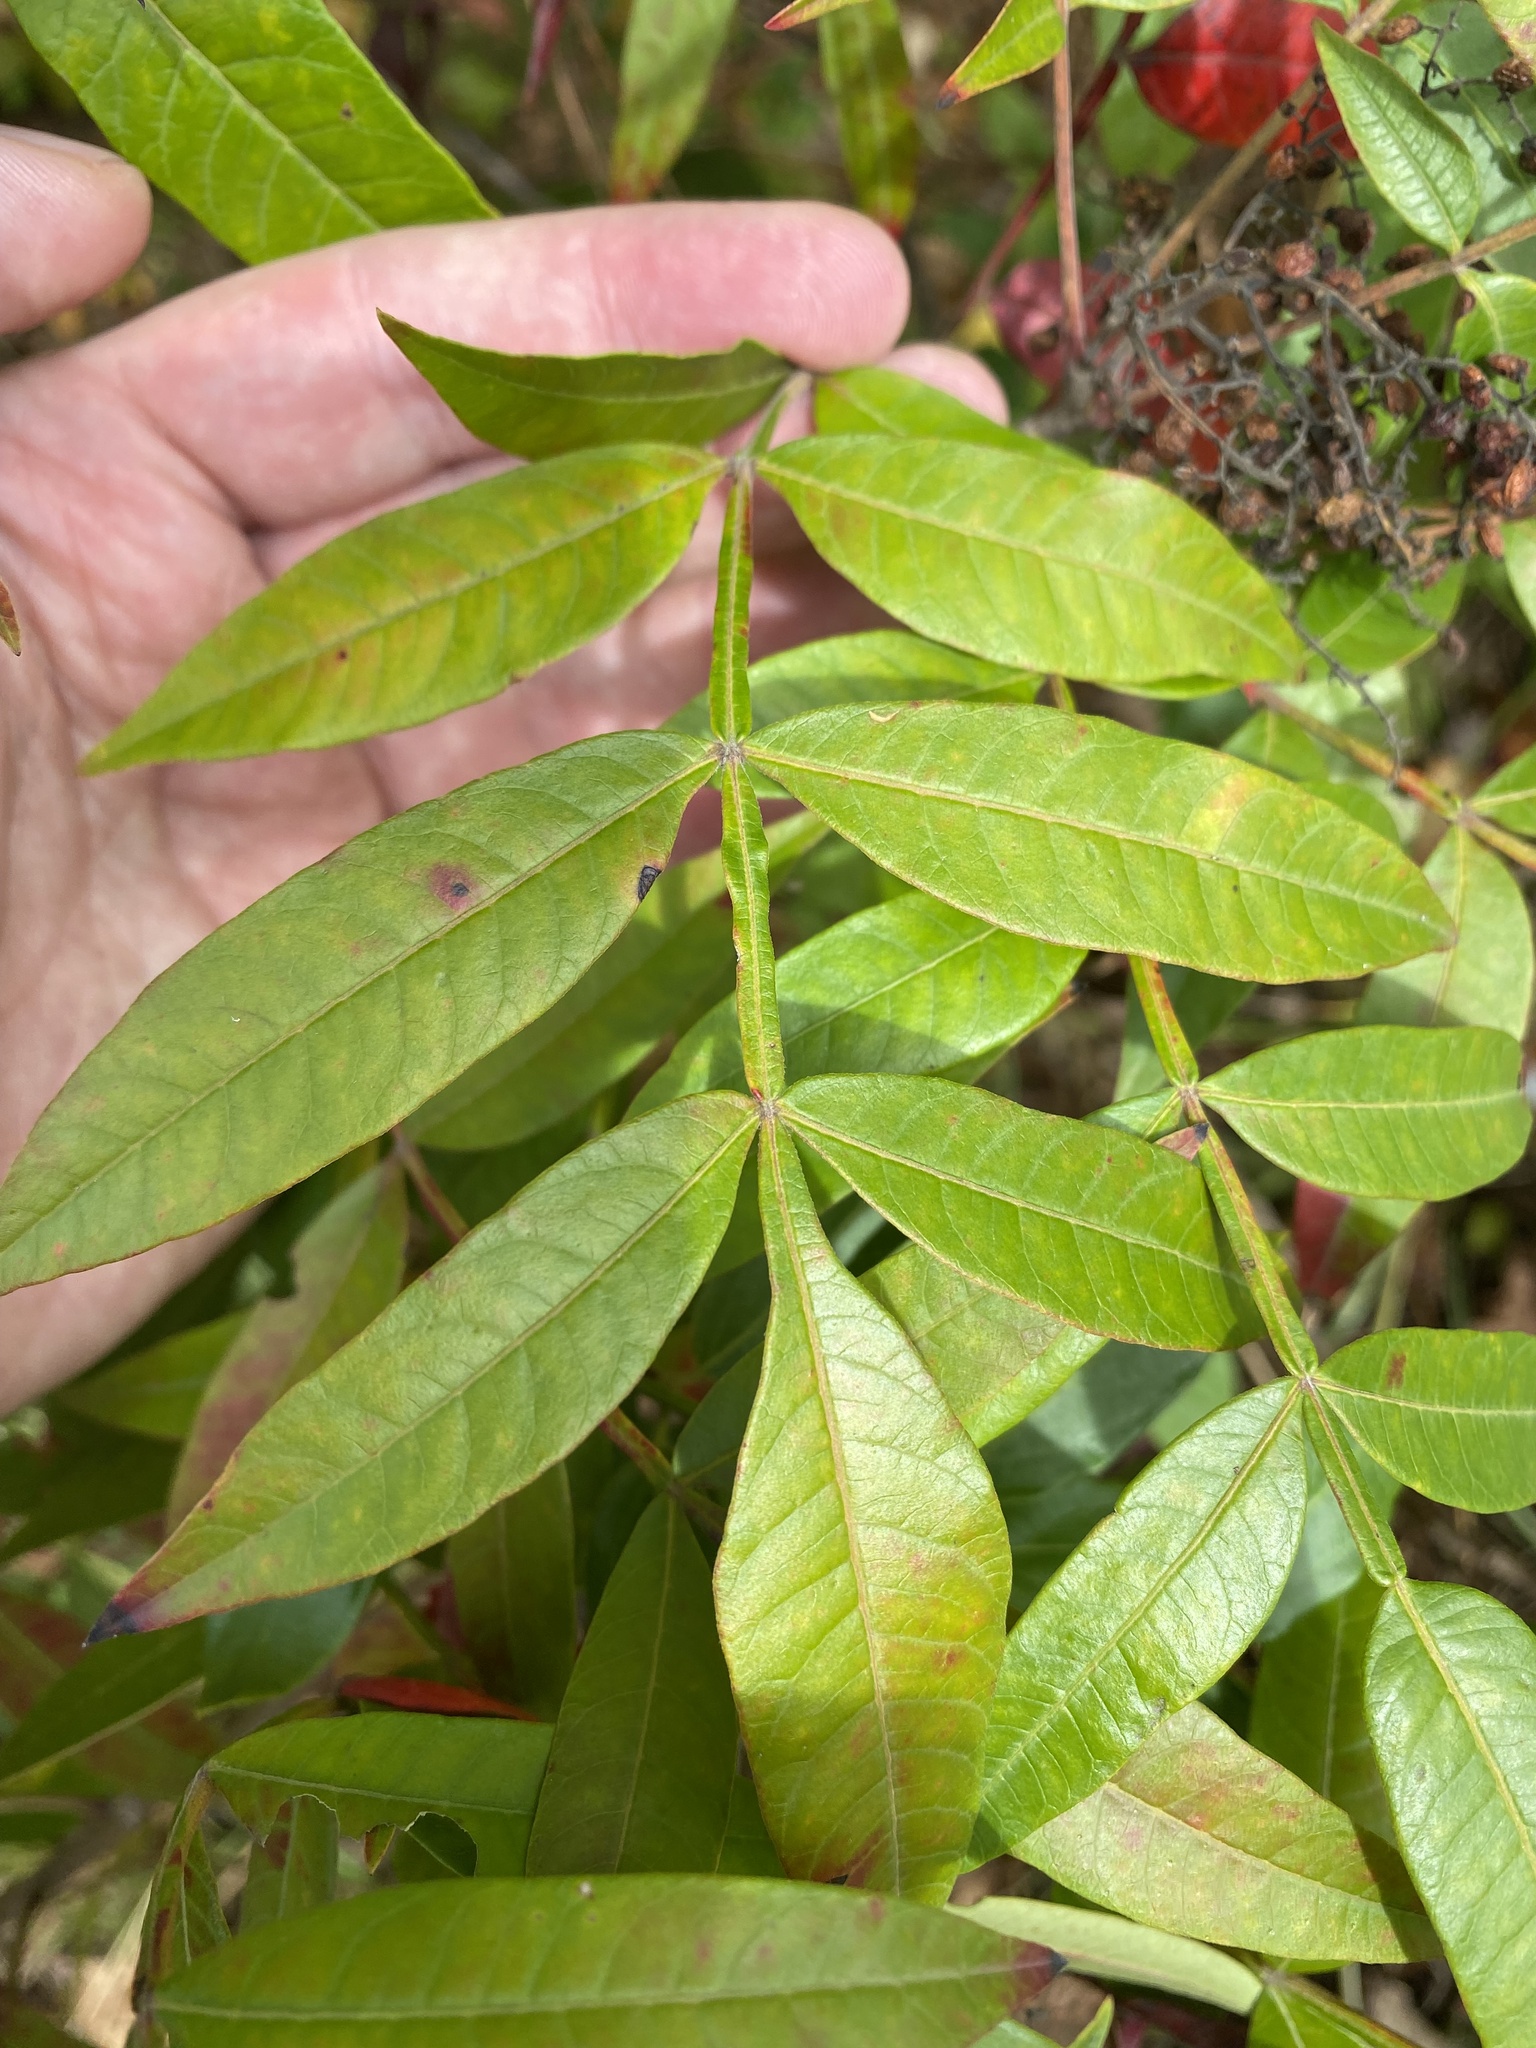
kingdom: Plantae
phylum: Tracheophyta
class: Magnoliopsida
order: Sapindales
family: Anacardiaceae
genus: Rhus
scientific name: Rhus copallina
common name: Shining sumac
